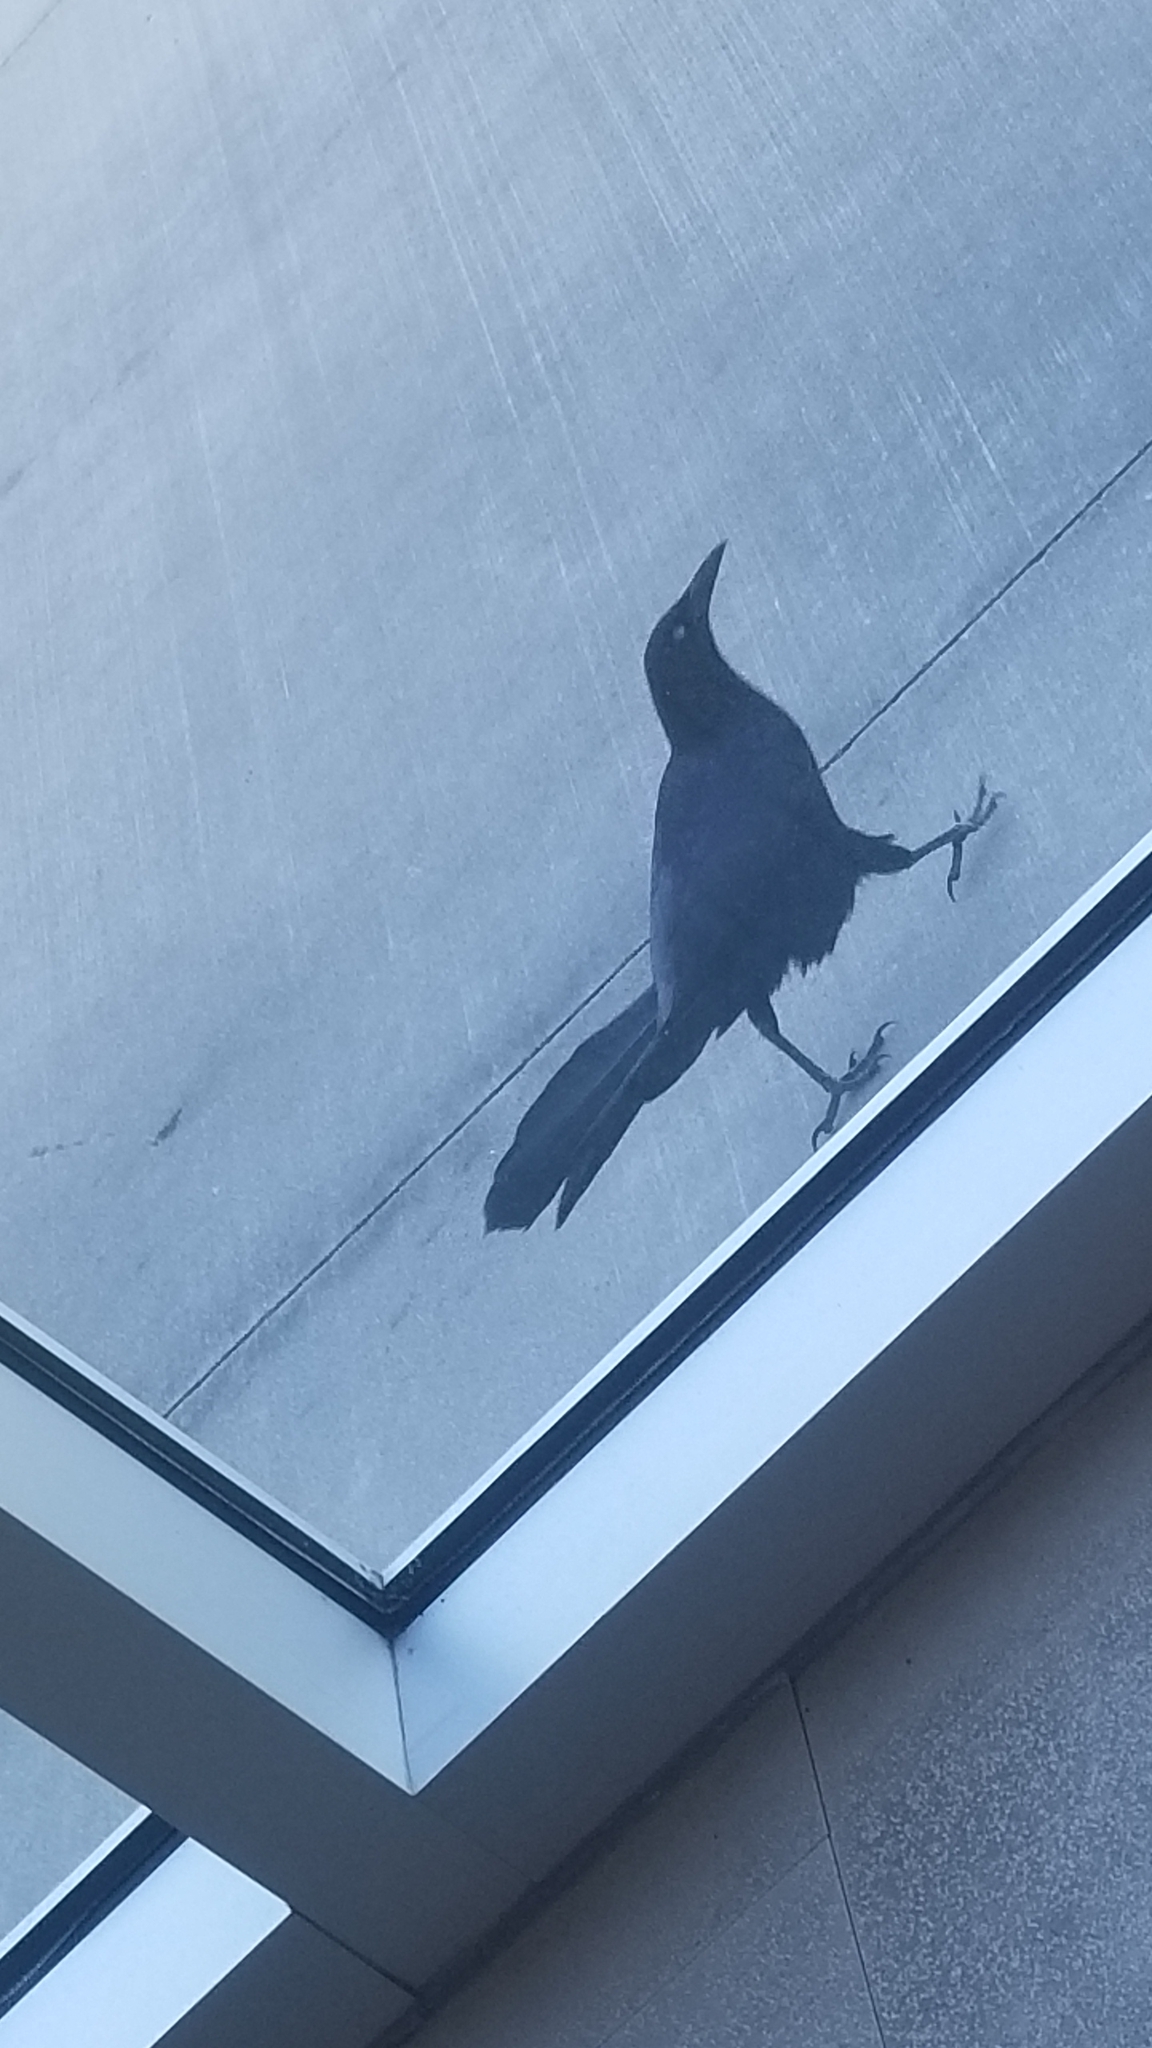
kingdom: Animalia
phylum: Chordata
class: Aves
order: Passeriformes
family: Icteridae
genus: Quiscalus
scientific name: Quiscalus mexicanus
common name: Great-tailed grackle
